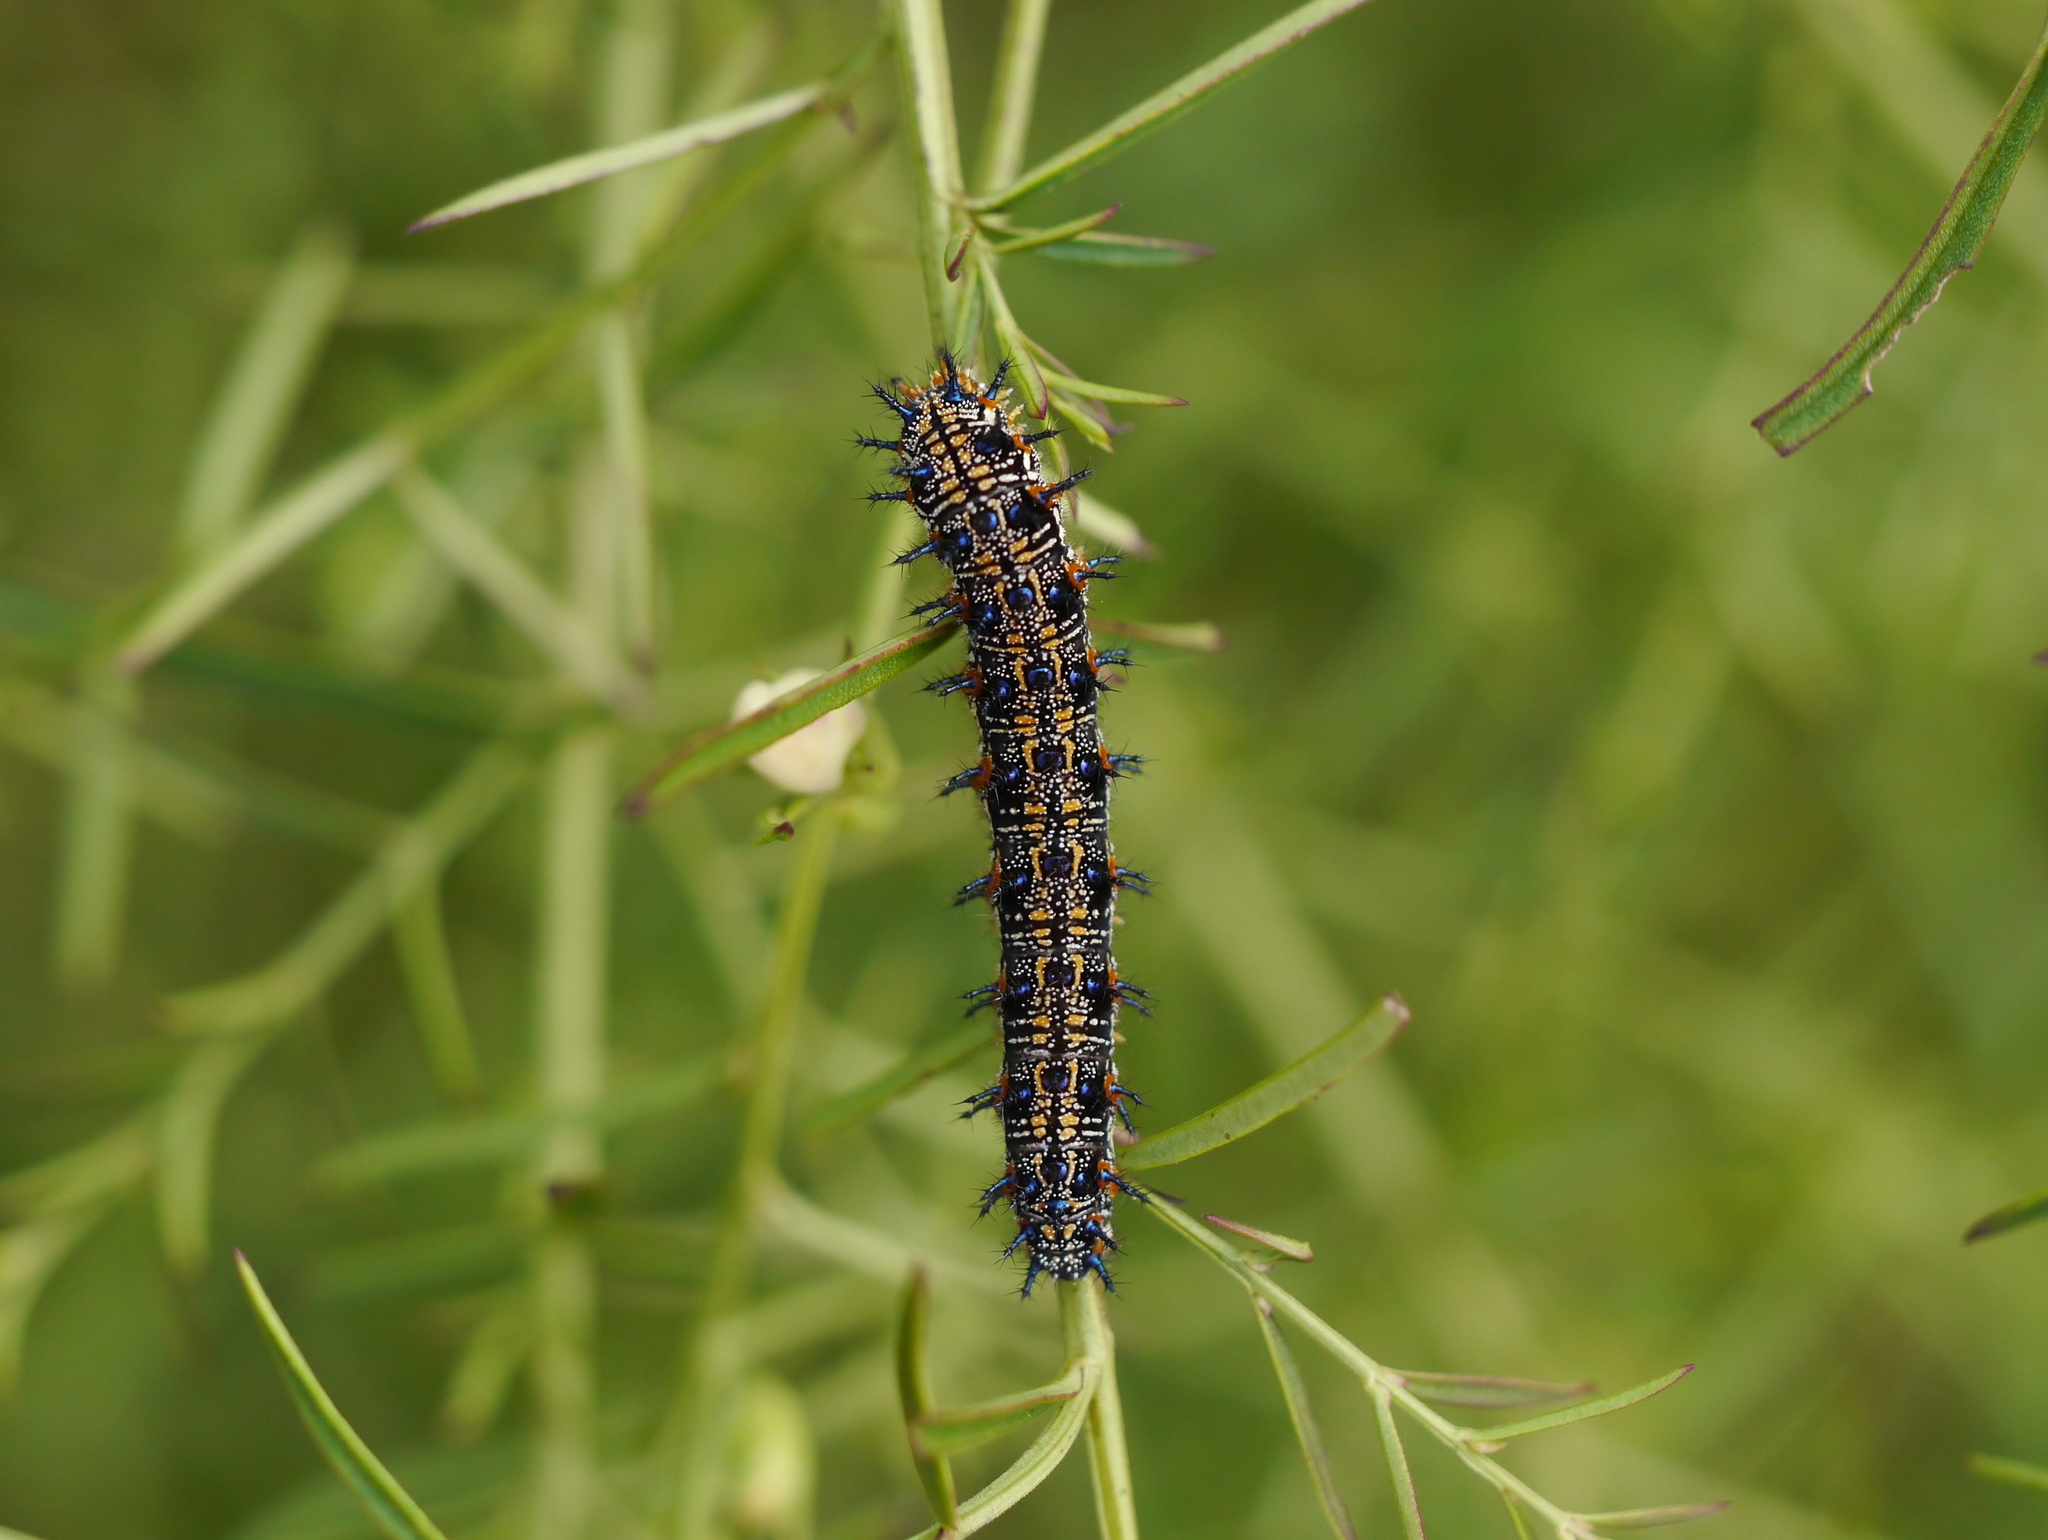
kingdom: Animalia
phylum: Arthropoda
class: Insecta
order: Lepidoptera
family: Nymphalidae
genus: Junonia
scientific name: Junonia coenia
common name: Common buckeye
